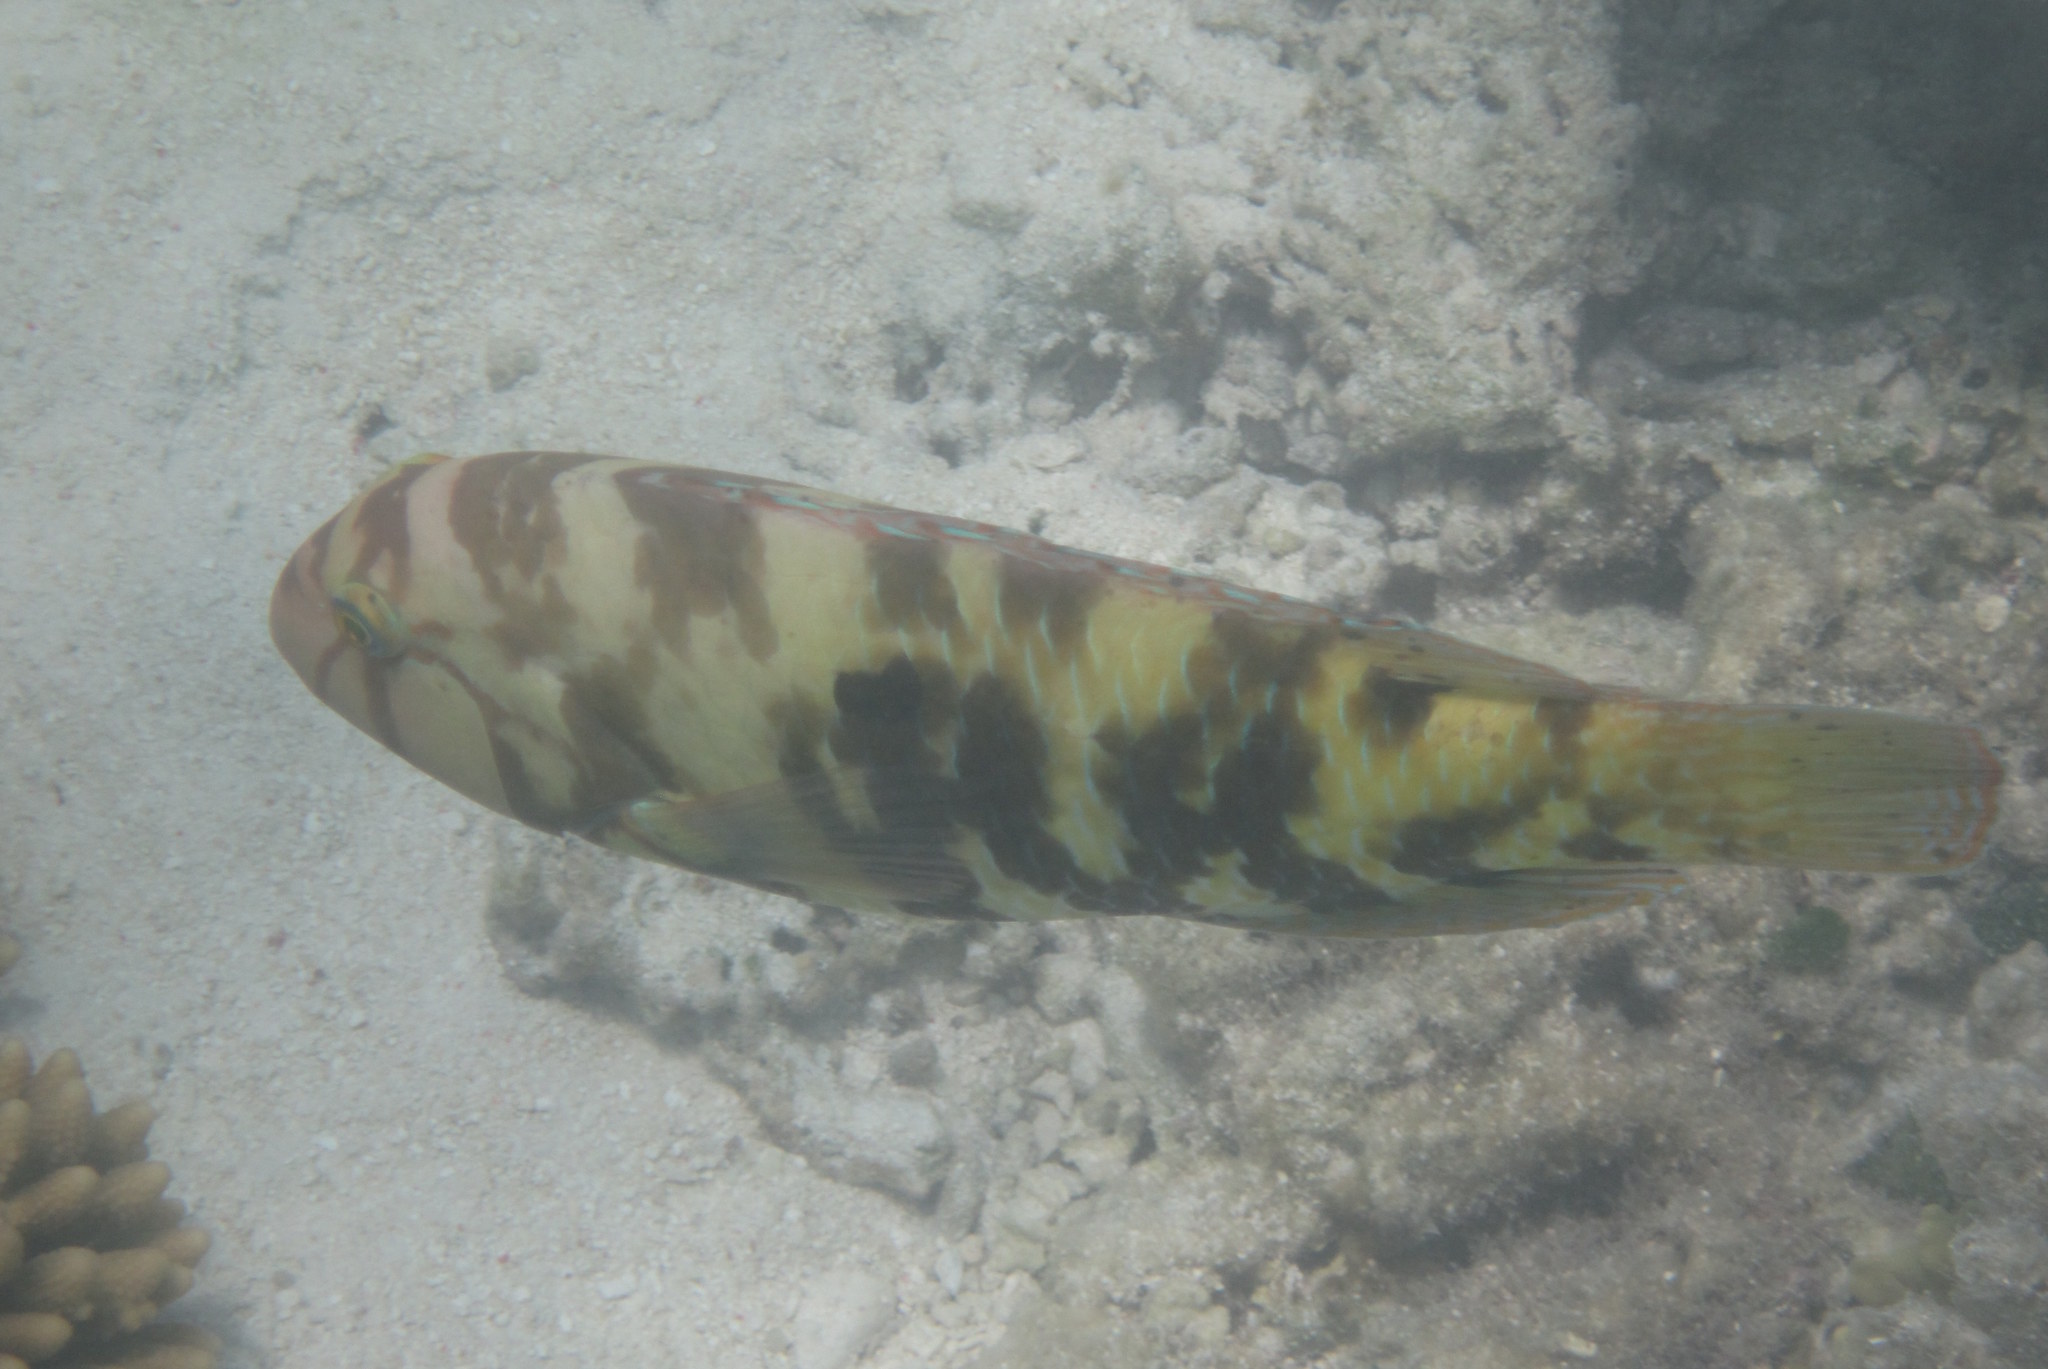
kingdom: Animalia
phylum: Chordata
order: Perciformes
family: Labridae
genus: Choerodon
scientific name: Choerodon graphicus
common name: Graphic tuskfish
